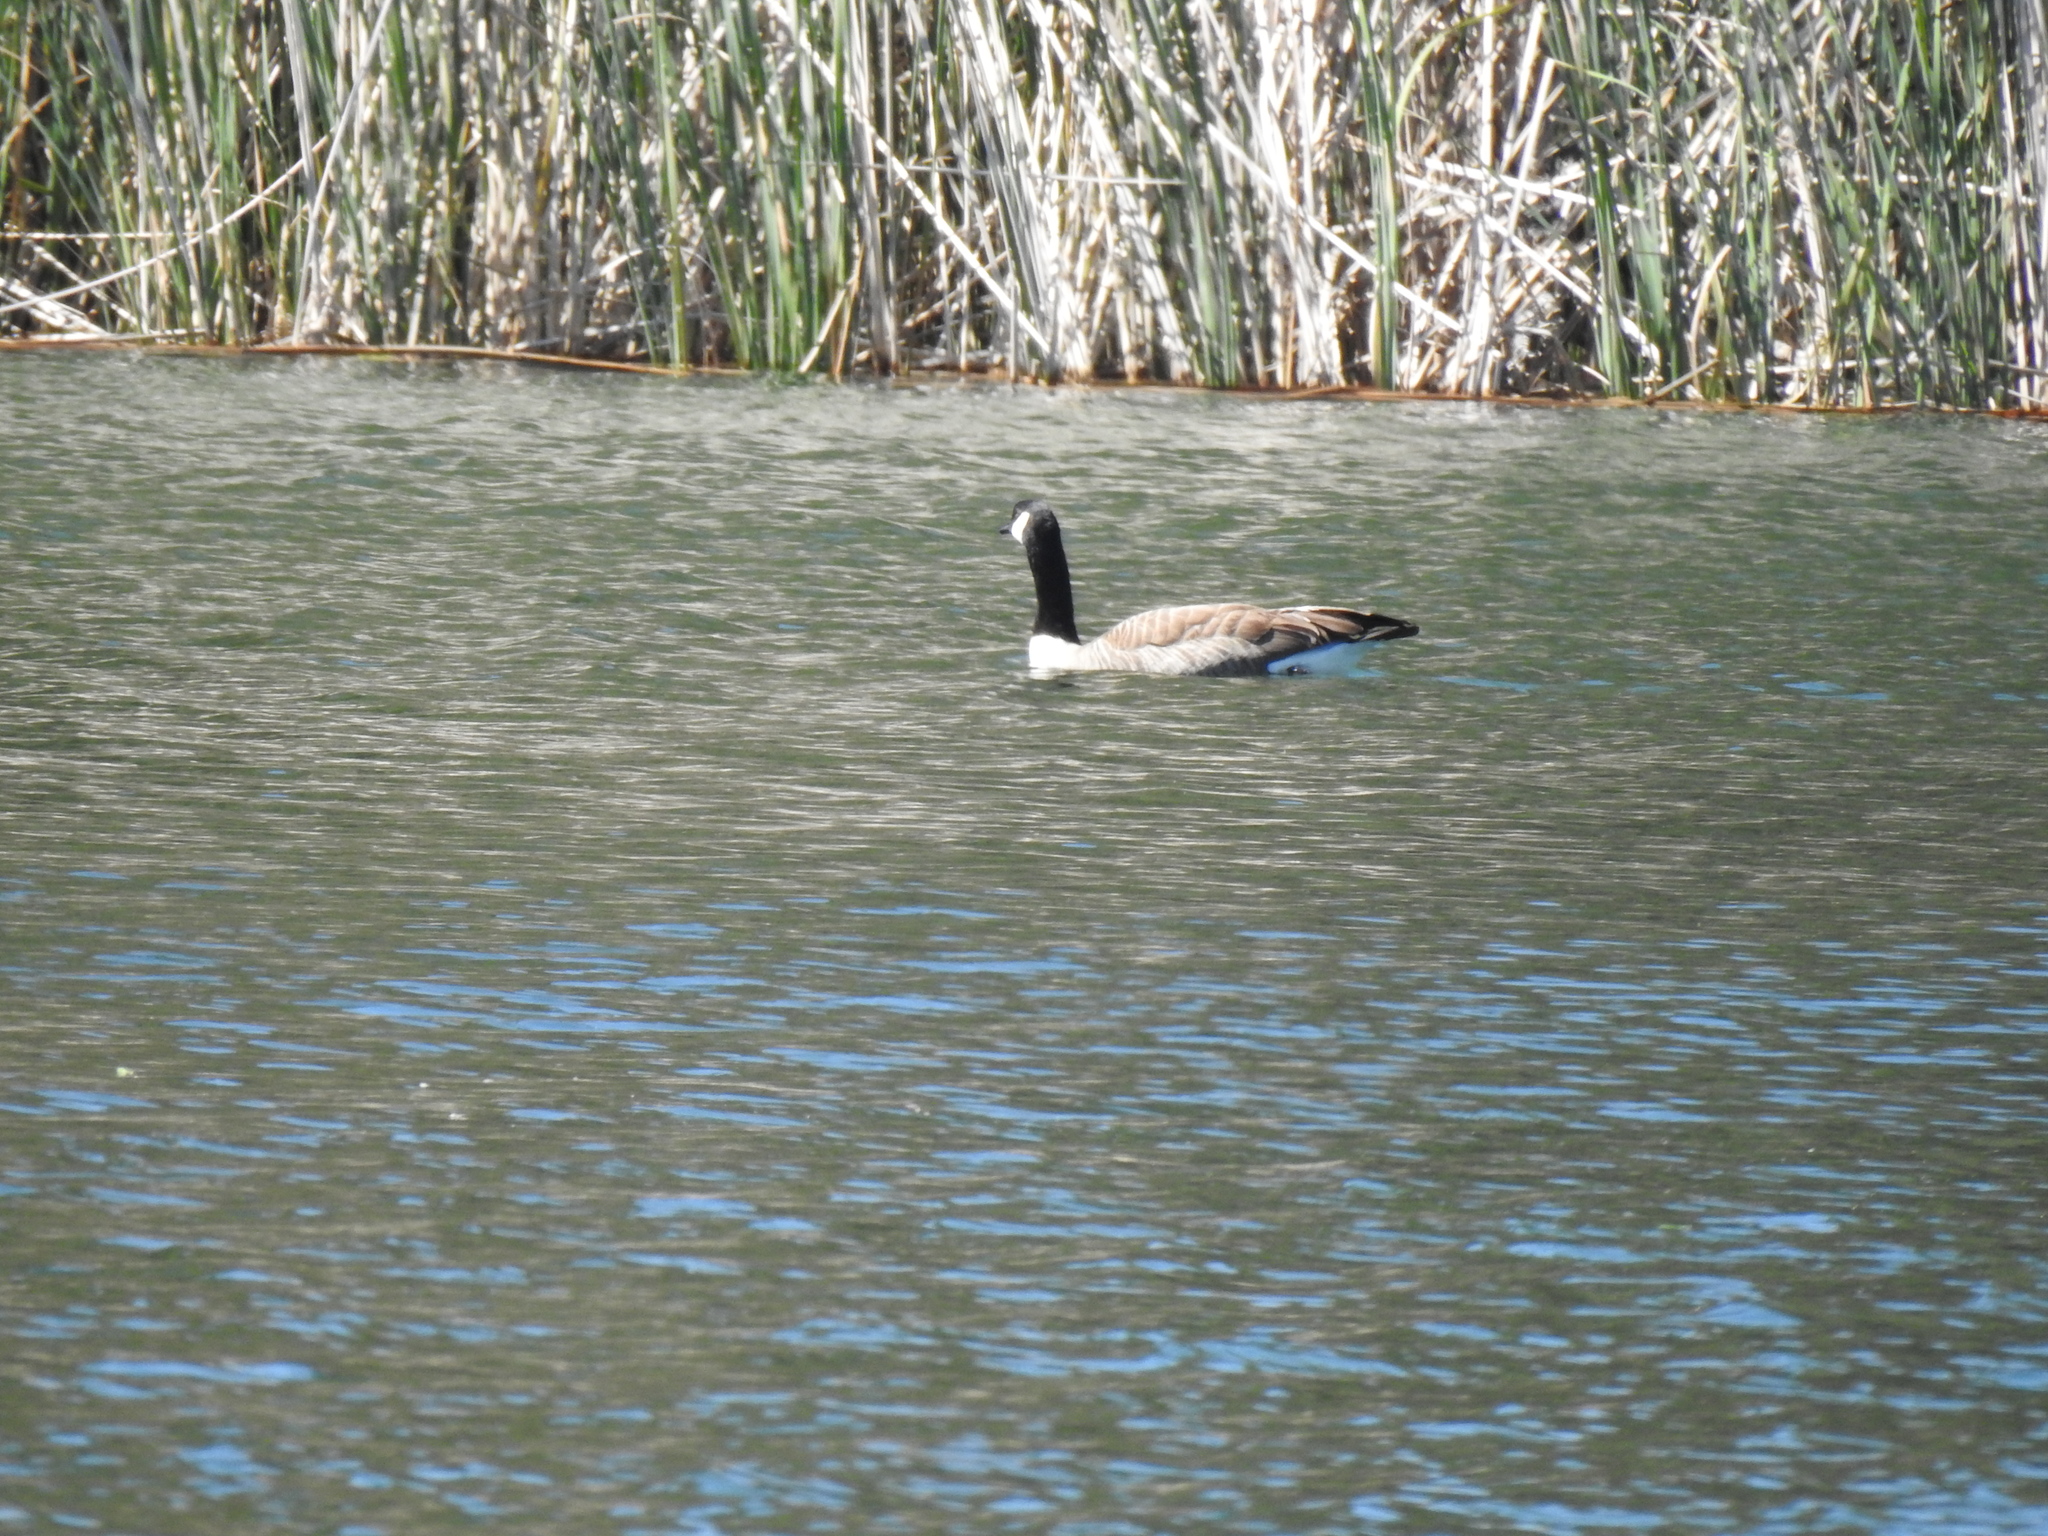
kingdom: Animalia
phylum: Chordata
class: Aves
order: Anseriformes
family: Anatidae
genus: Branta
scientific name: Branta canadensis
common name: Canada goose
